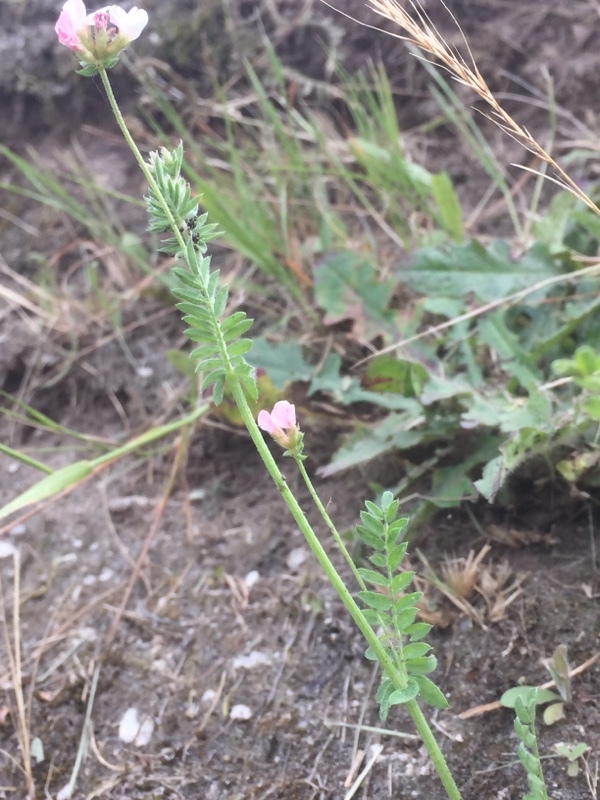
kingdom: Plantae
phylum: Tracheophyta
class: Magnoliopsida
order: Fabales
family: Fabaceae
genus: Ornithopus
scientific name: Ornithopus perpusillus
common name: Bird's-foot
